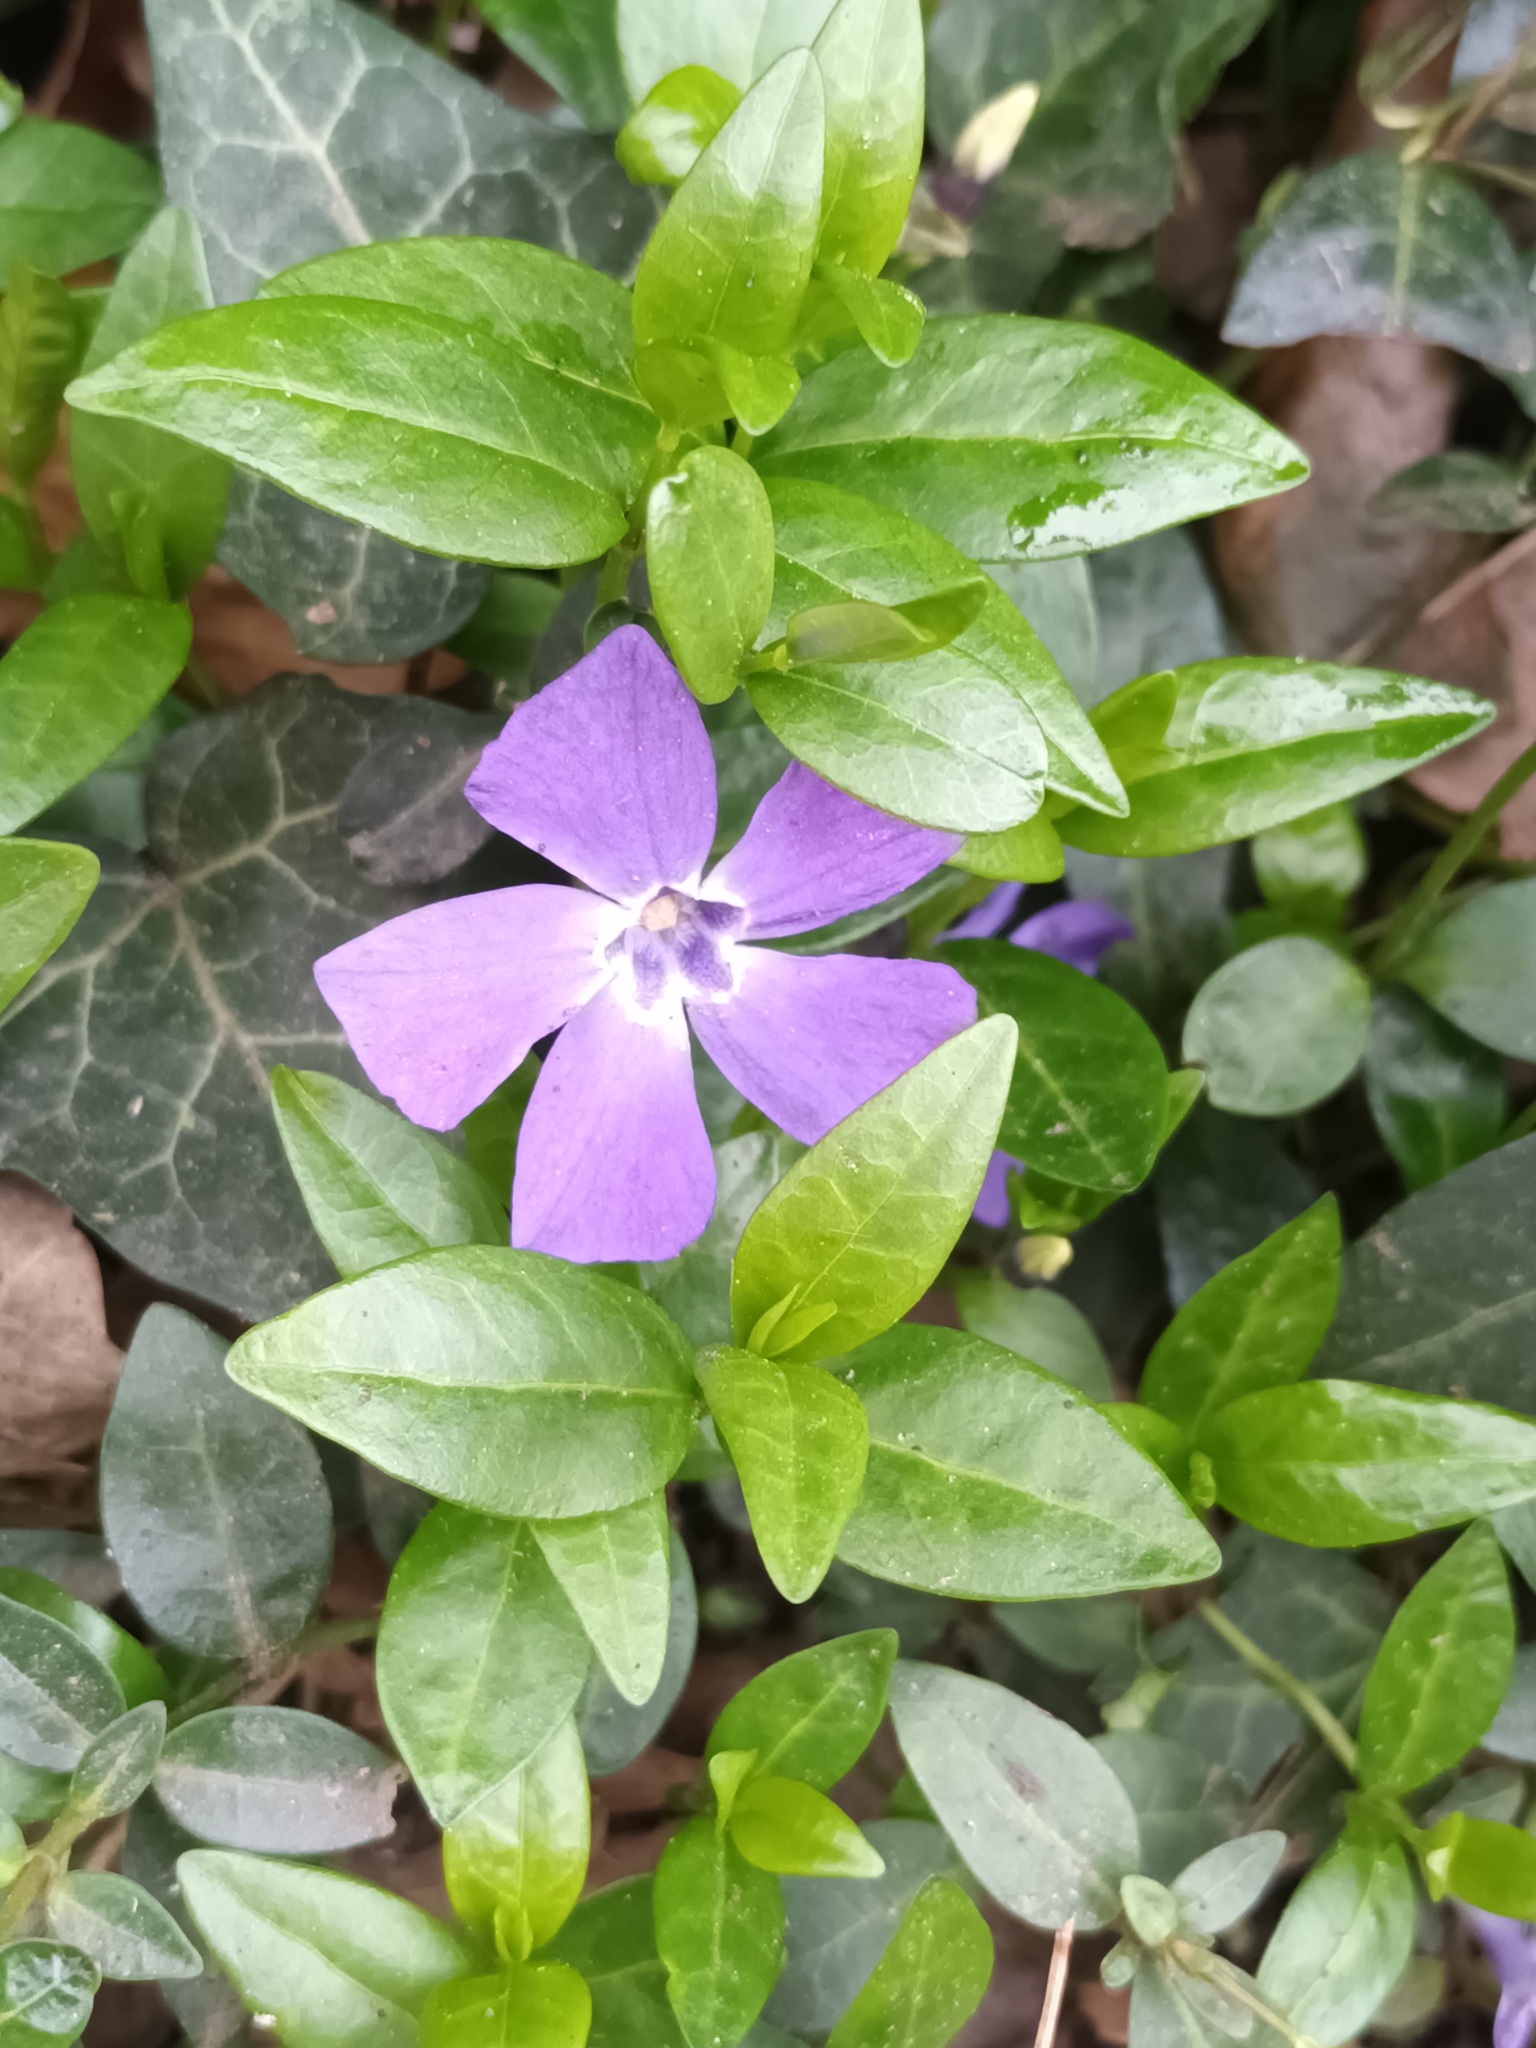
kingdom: Plantae
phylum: Tracheophyta
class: Magnoliopsida
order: Gentianales
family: Apocynaceae
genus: Vinca
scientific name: Vinca minor
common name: Lesser periwinkle
